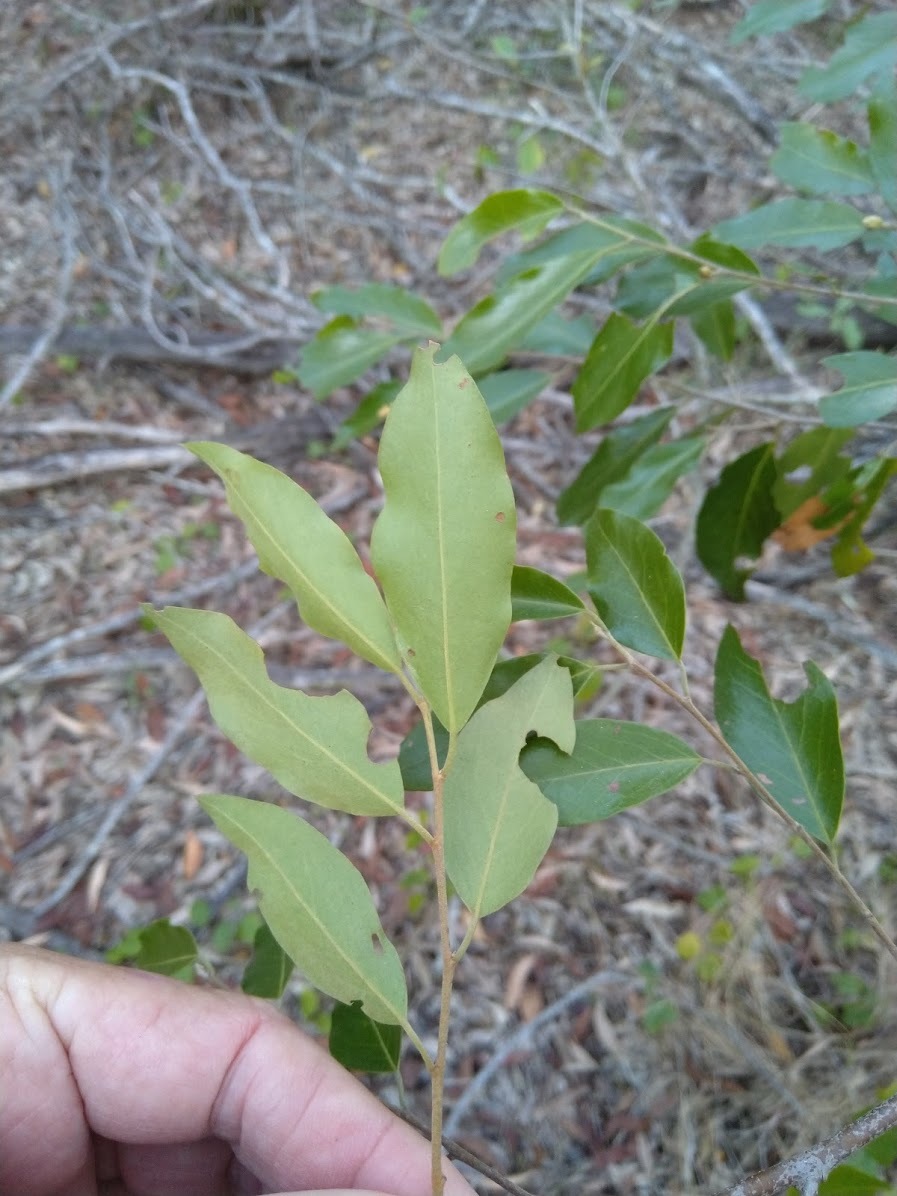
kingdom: Plantae
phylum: Tracheophyta
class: Magnoliopsida
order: Malpighiales
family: Picrodendraceae
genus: Petalostigma
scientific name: Petalostigma triloculare
